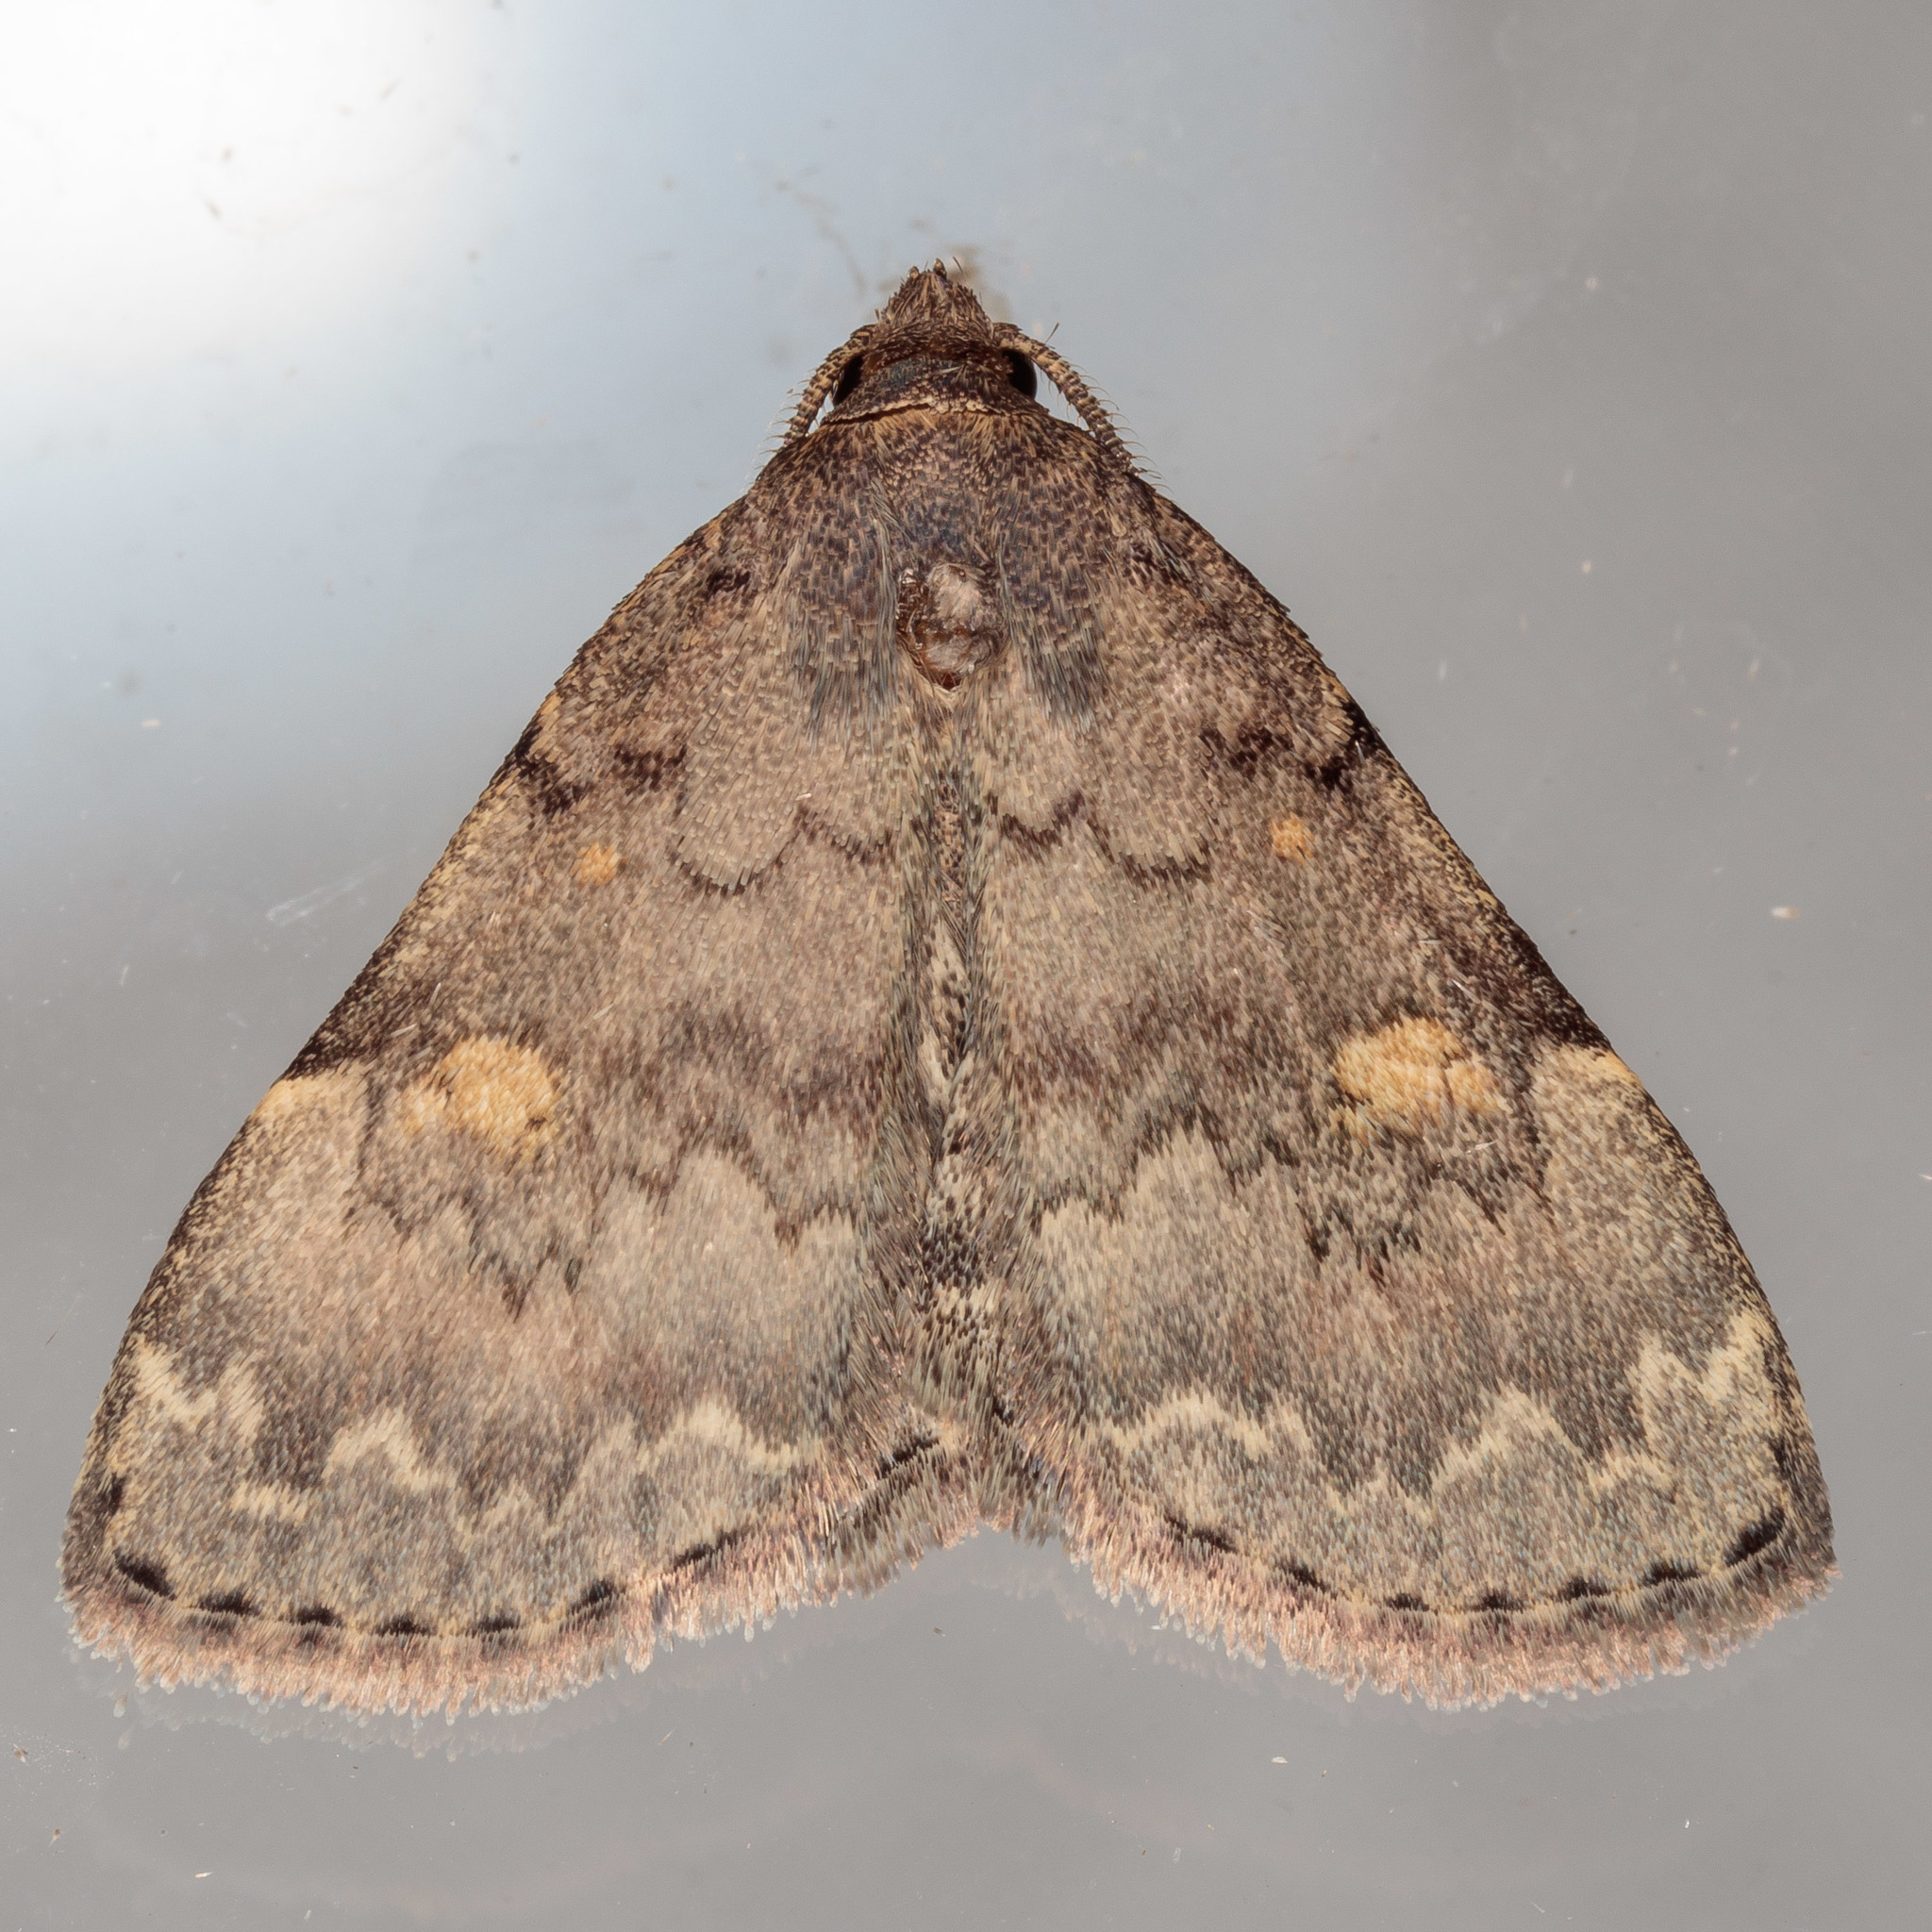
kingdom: Animalia
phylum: Arthropoda
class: Insecta
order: Lepidoptera
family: Erebidae
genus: Idia
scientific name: Idia aemula
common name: Common idia moth
